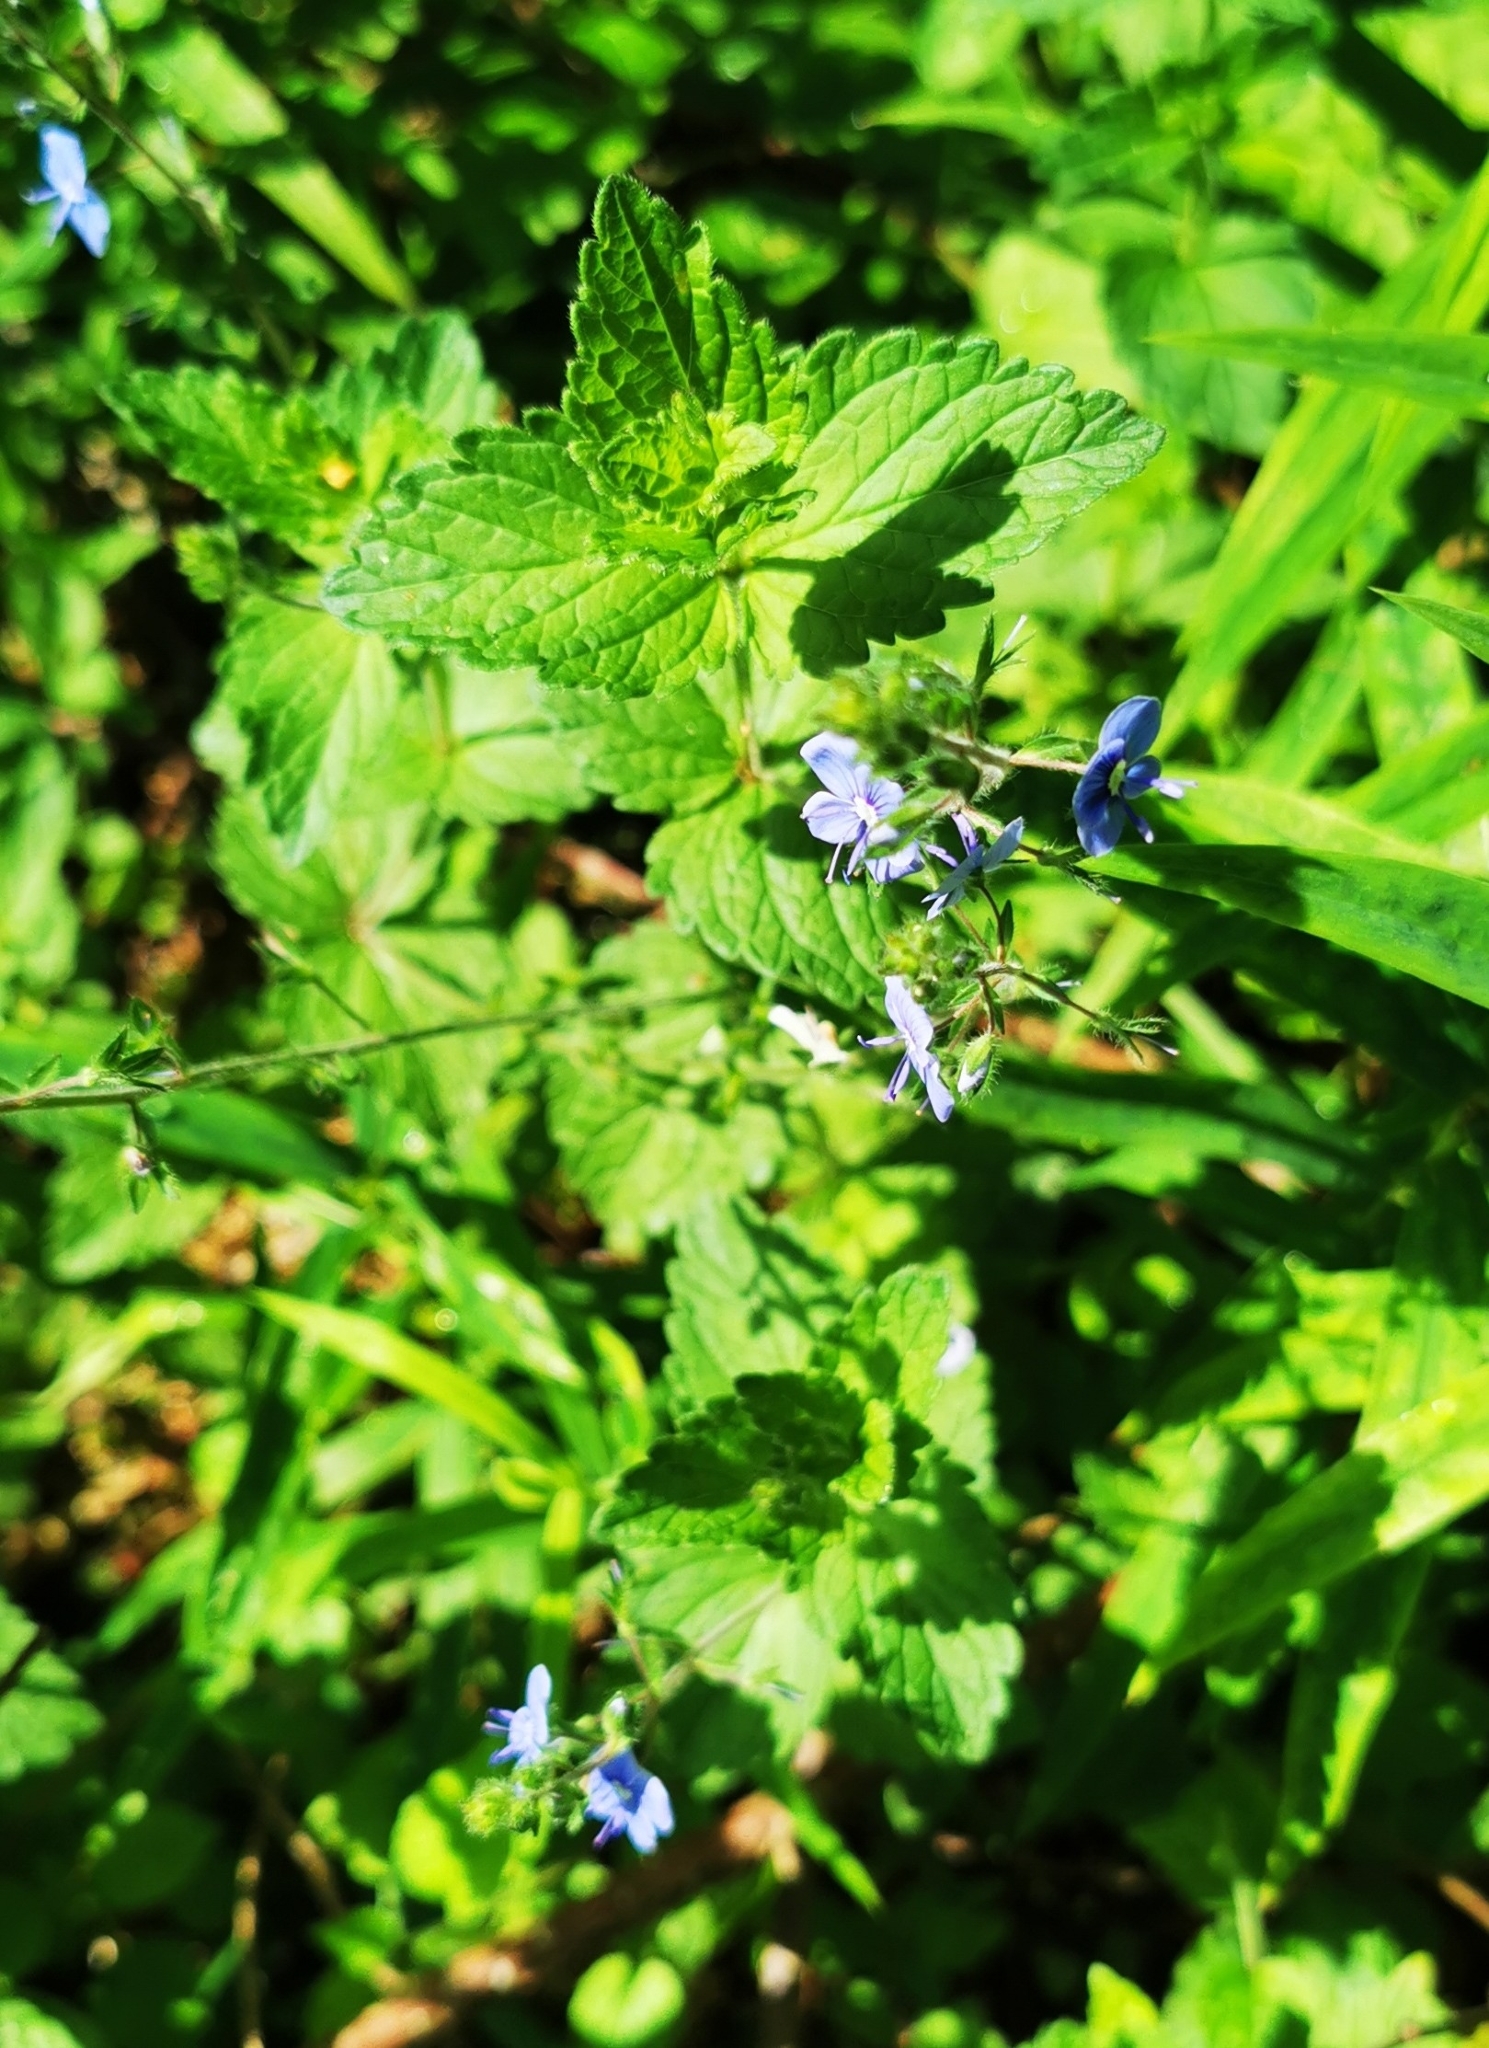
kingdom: Plantae
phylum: Tracheophyta
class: Magnoliopsida
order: Lamiales
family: Plantaginaceae
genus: Veronica
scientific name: Veronica chamaedrys
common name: Germander speedwell
